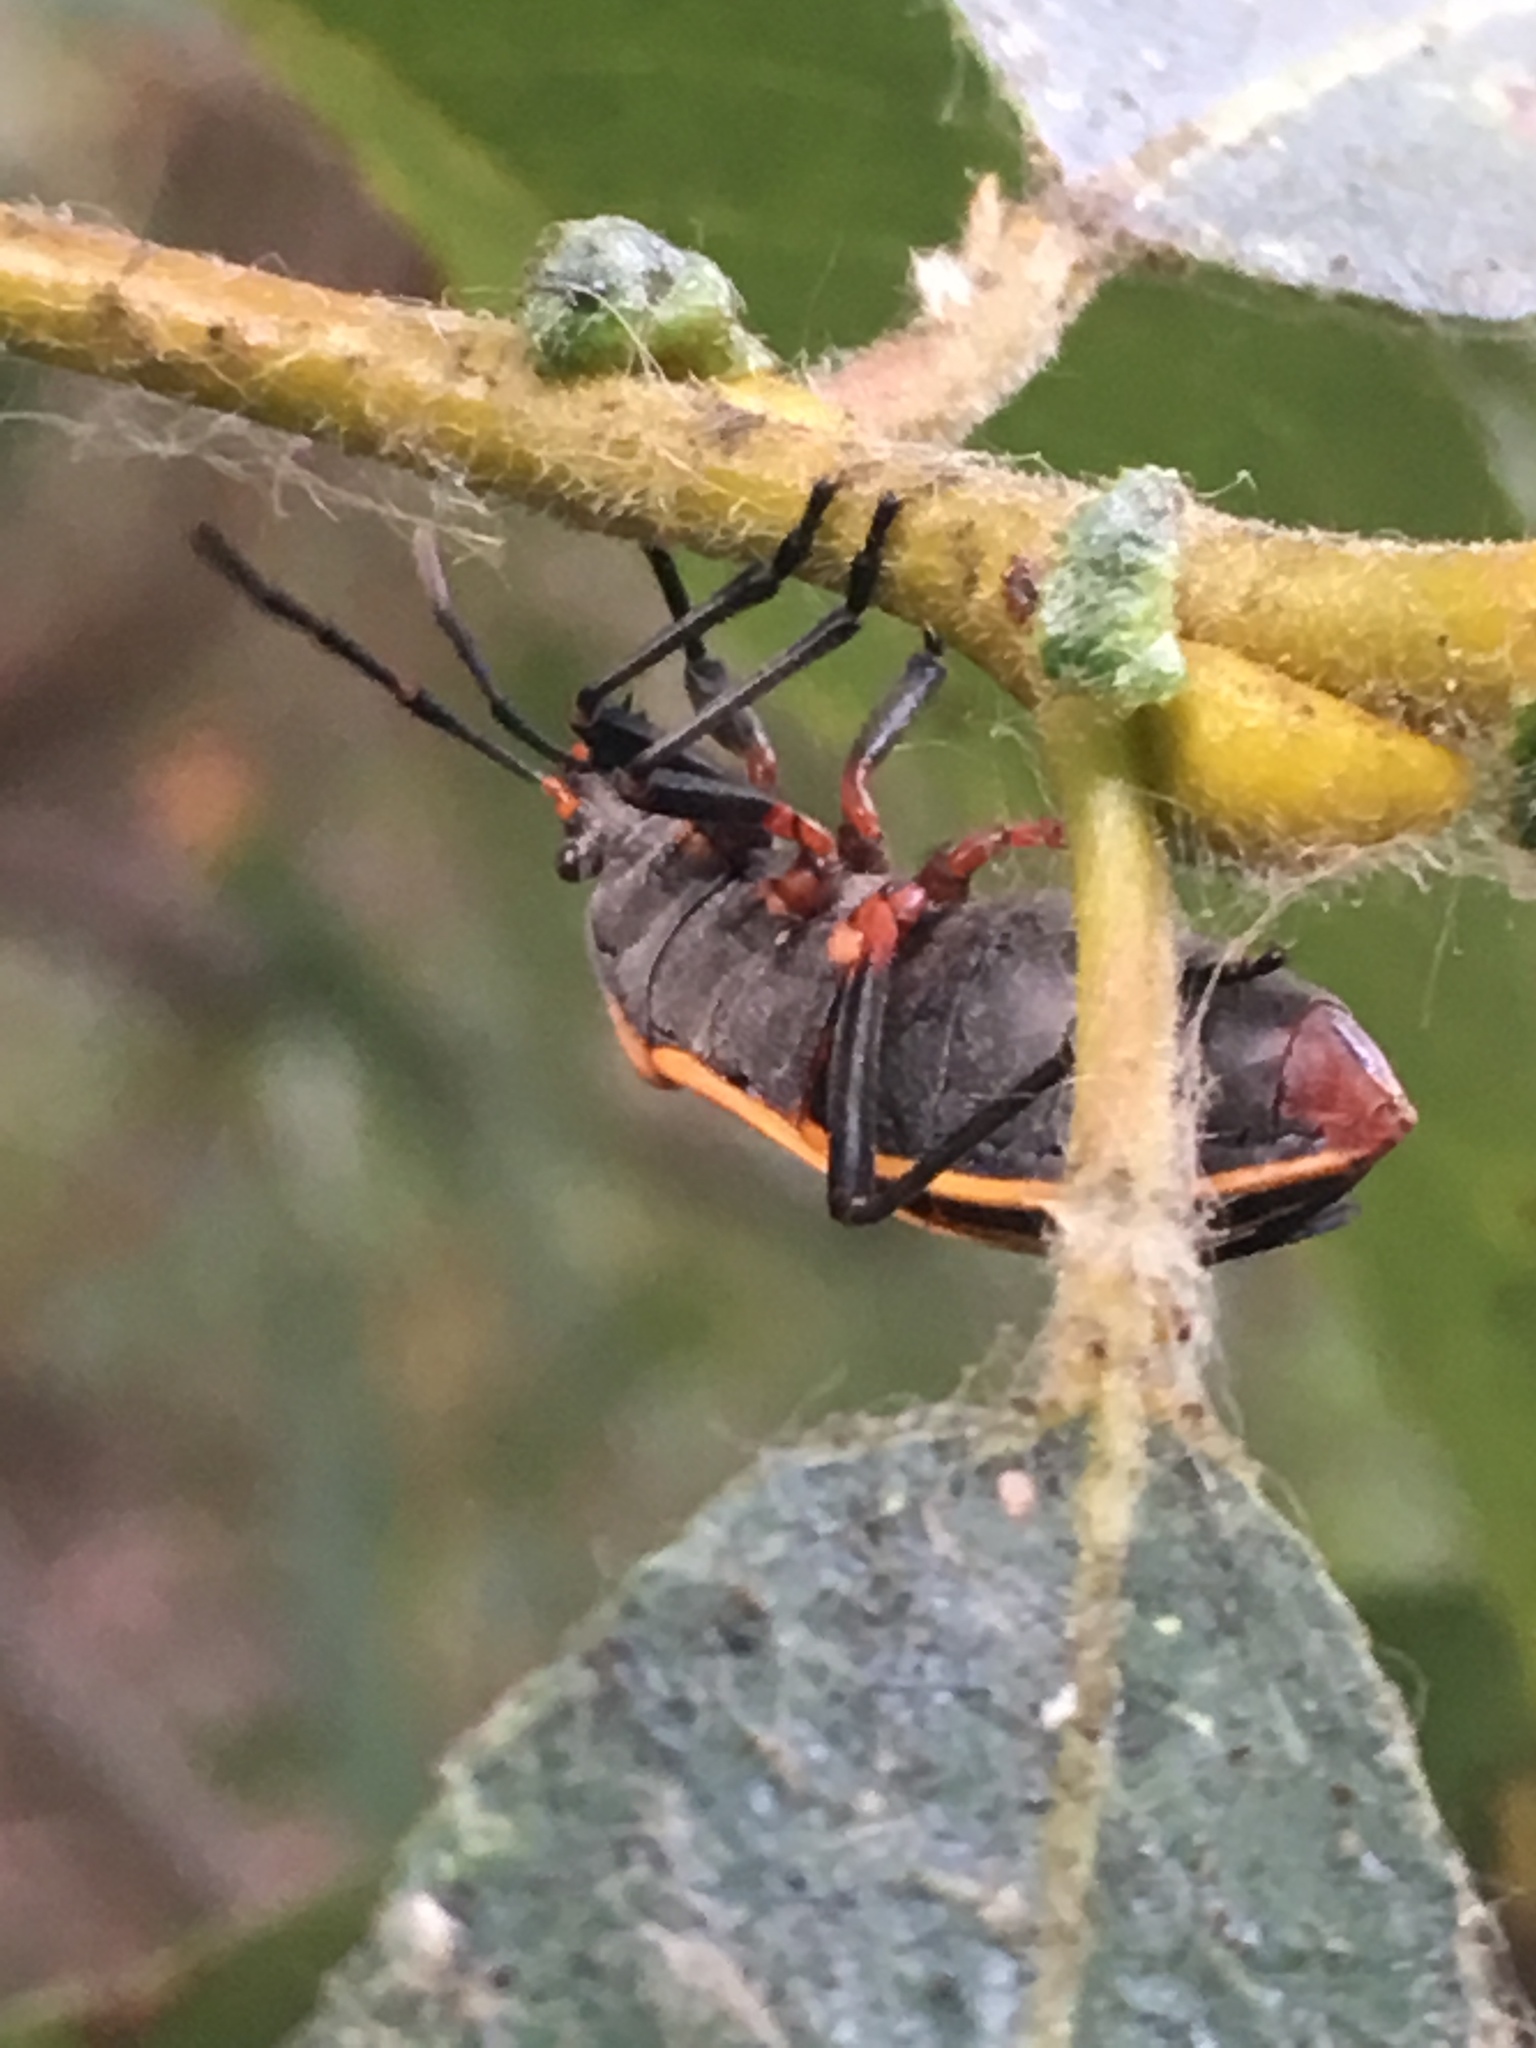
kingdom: Animalia
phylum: Arthropoda
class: Insecta
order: Hemiptera
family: Largidae
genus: Largus
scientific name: Largus californicus
